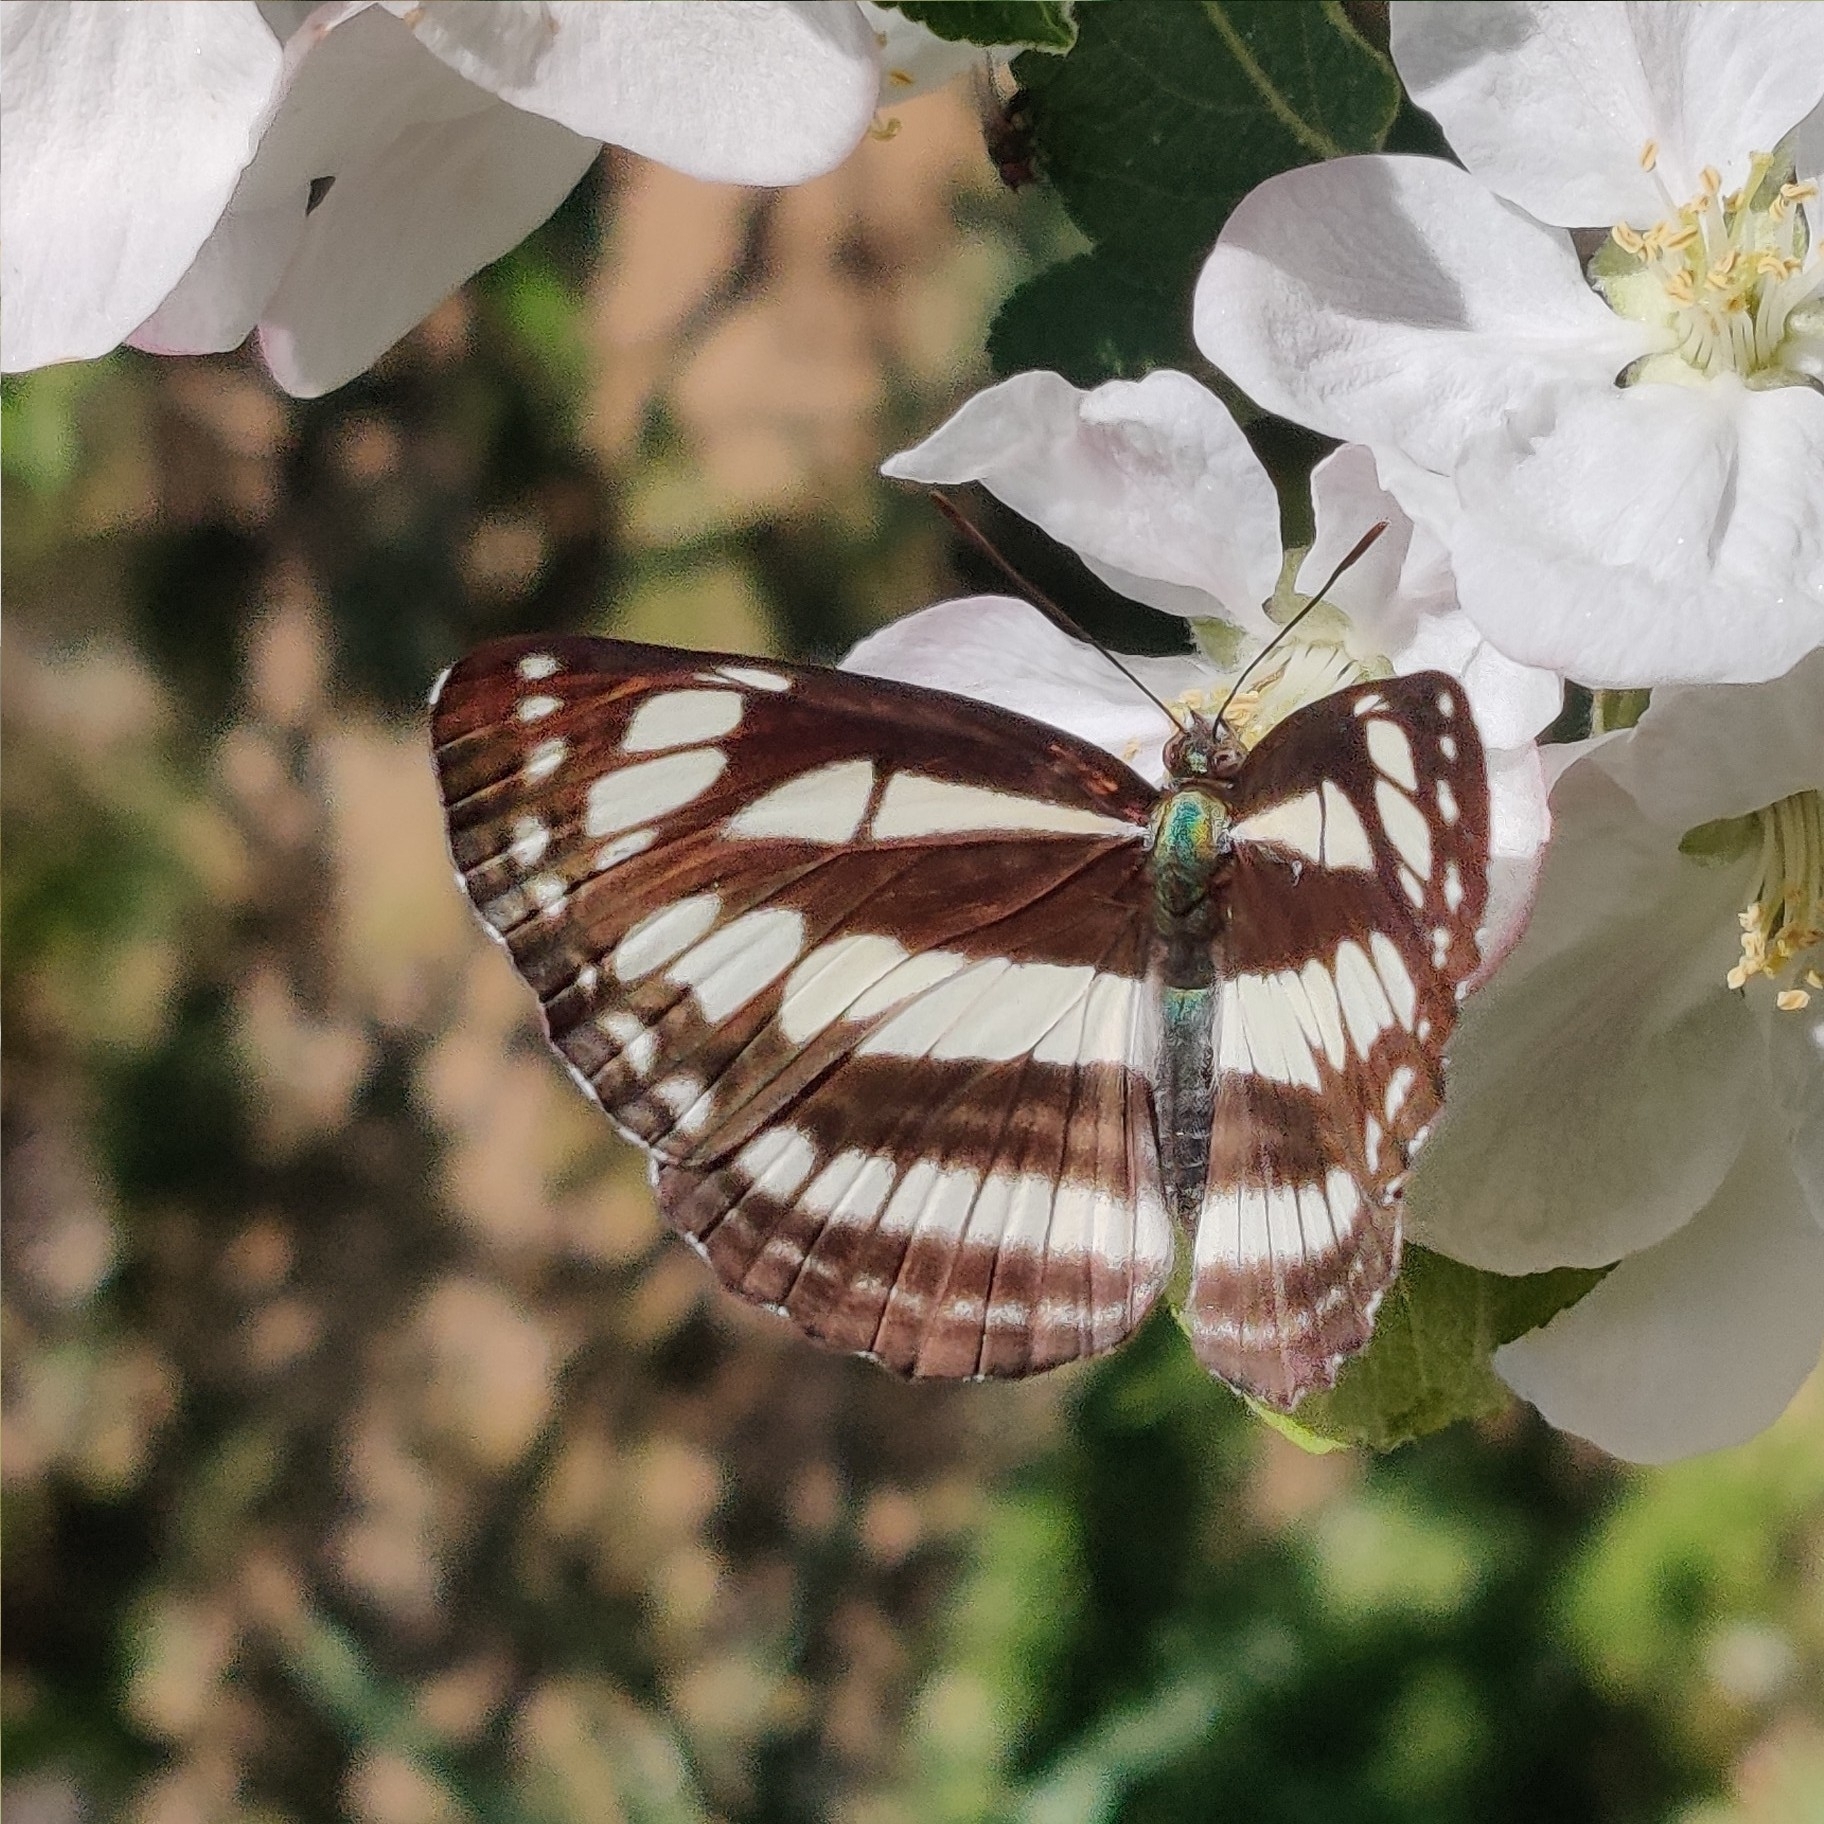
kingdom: Animalia
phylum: Arthropoda
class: Insecta
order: Lepidoptera
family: Nymphalidae
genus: Neptis
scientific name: Neptis soma
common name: Cream-spotted sailor
